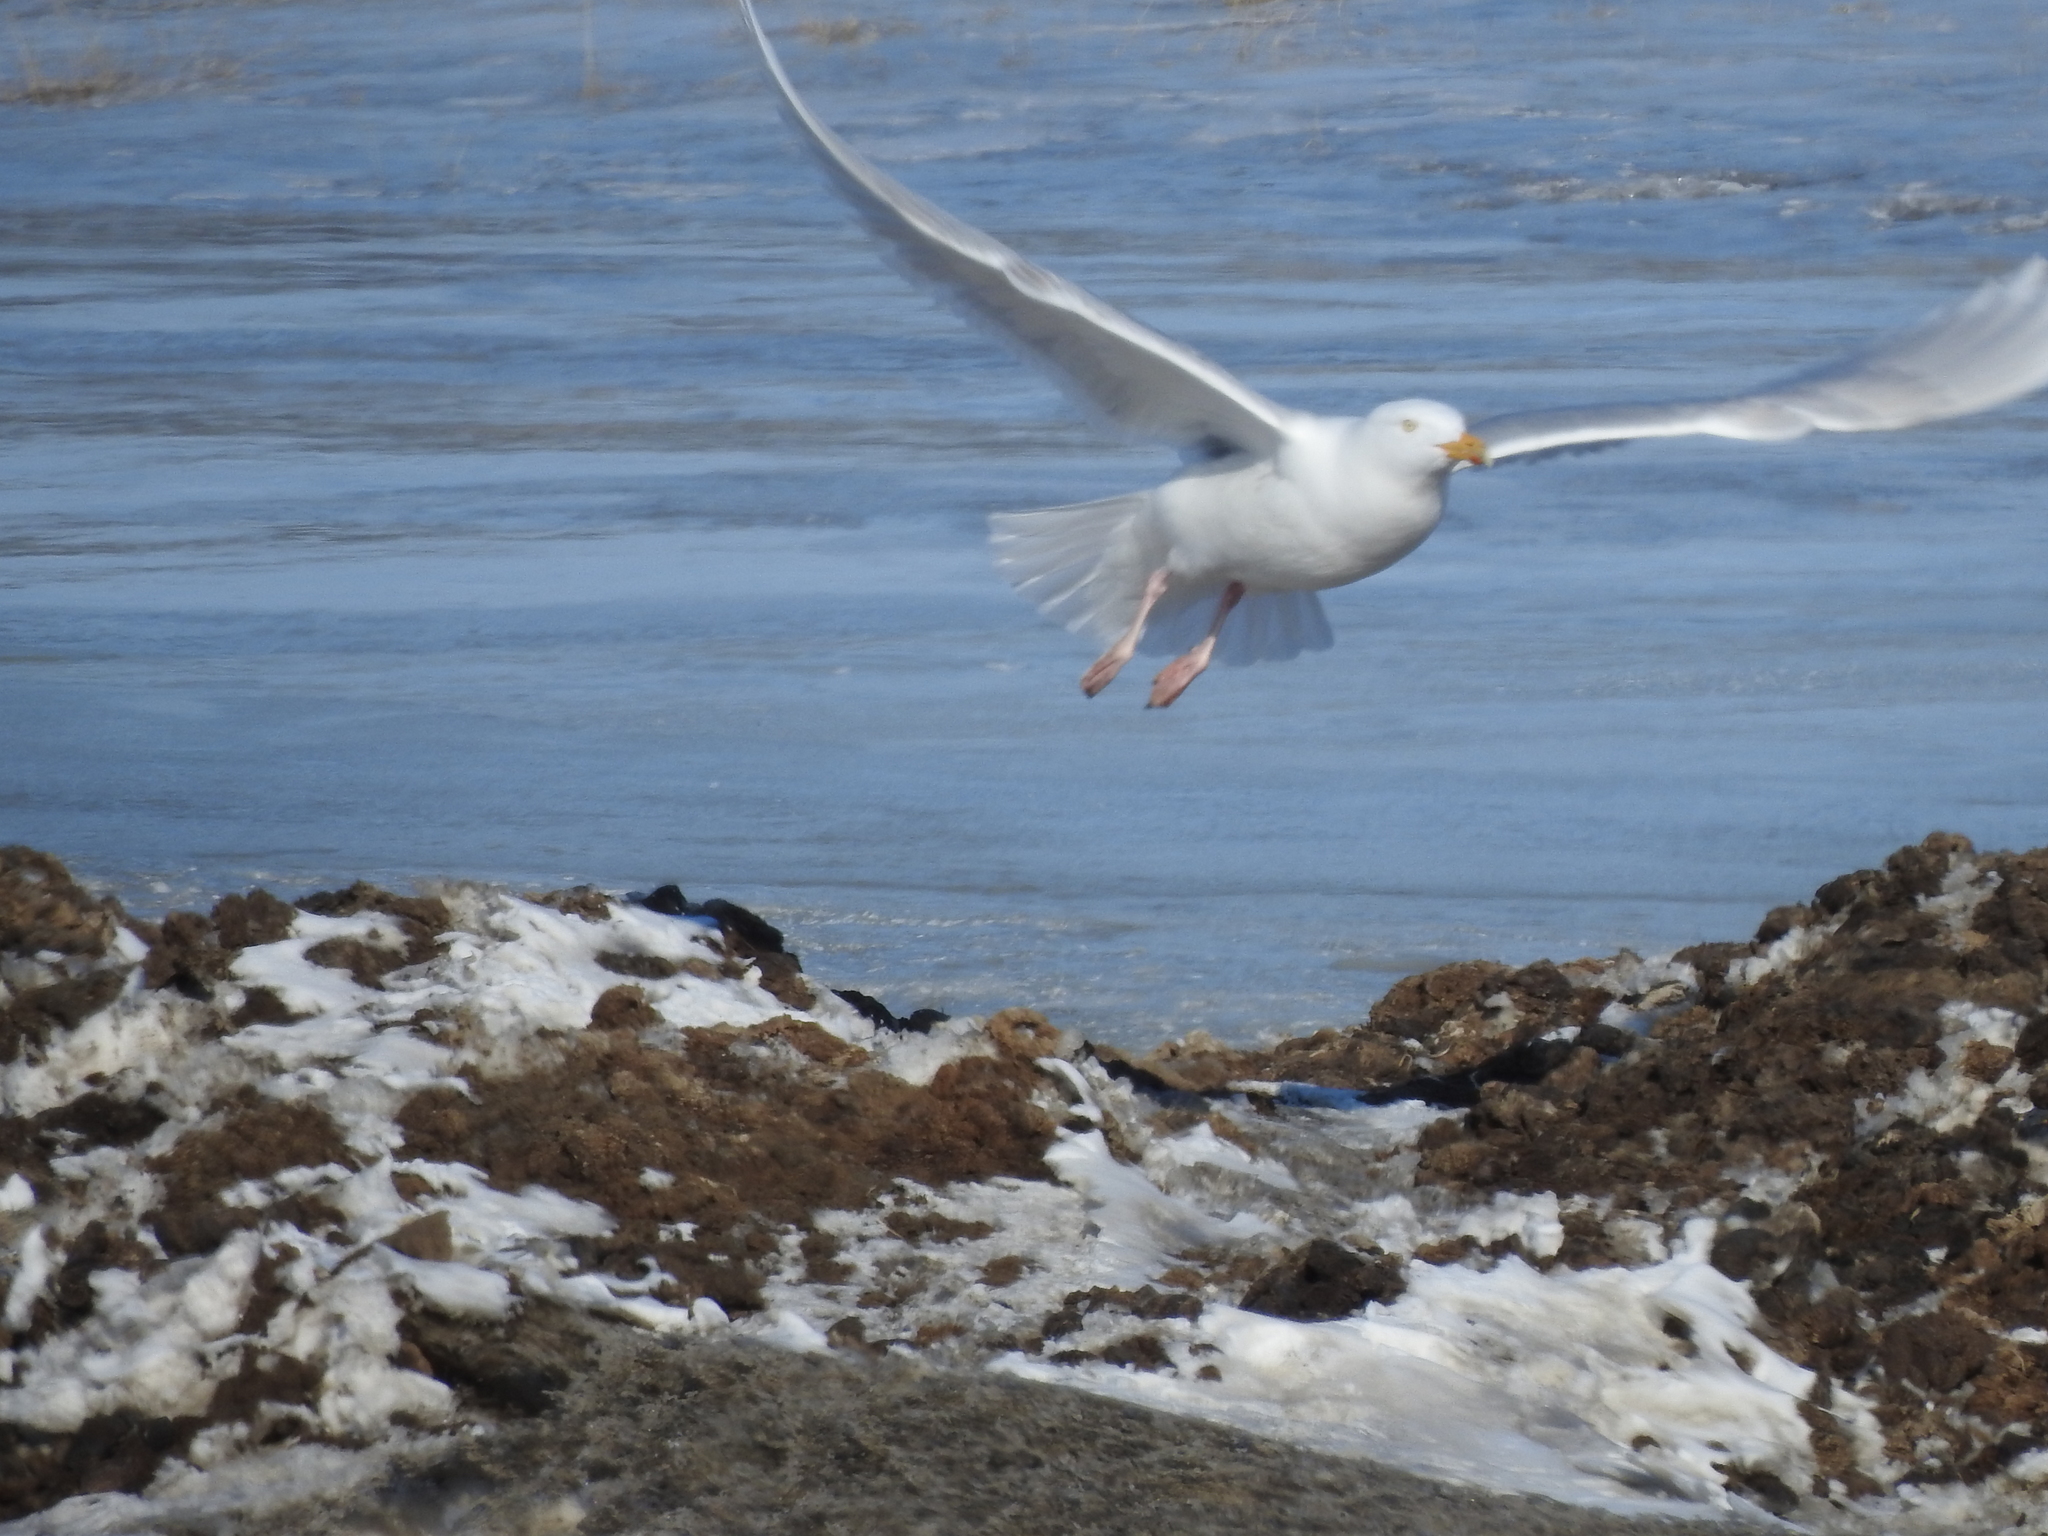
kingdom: Animalia
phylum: Chordata
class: Aves
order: Charadriiformes
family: Laridae
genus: Larus
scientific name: Larus hyperboreus
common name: Glaucous gull
